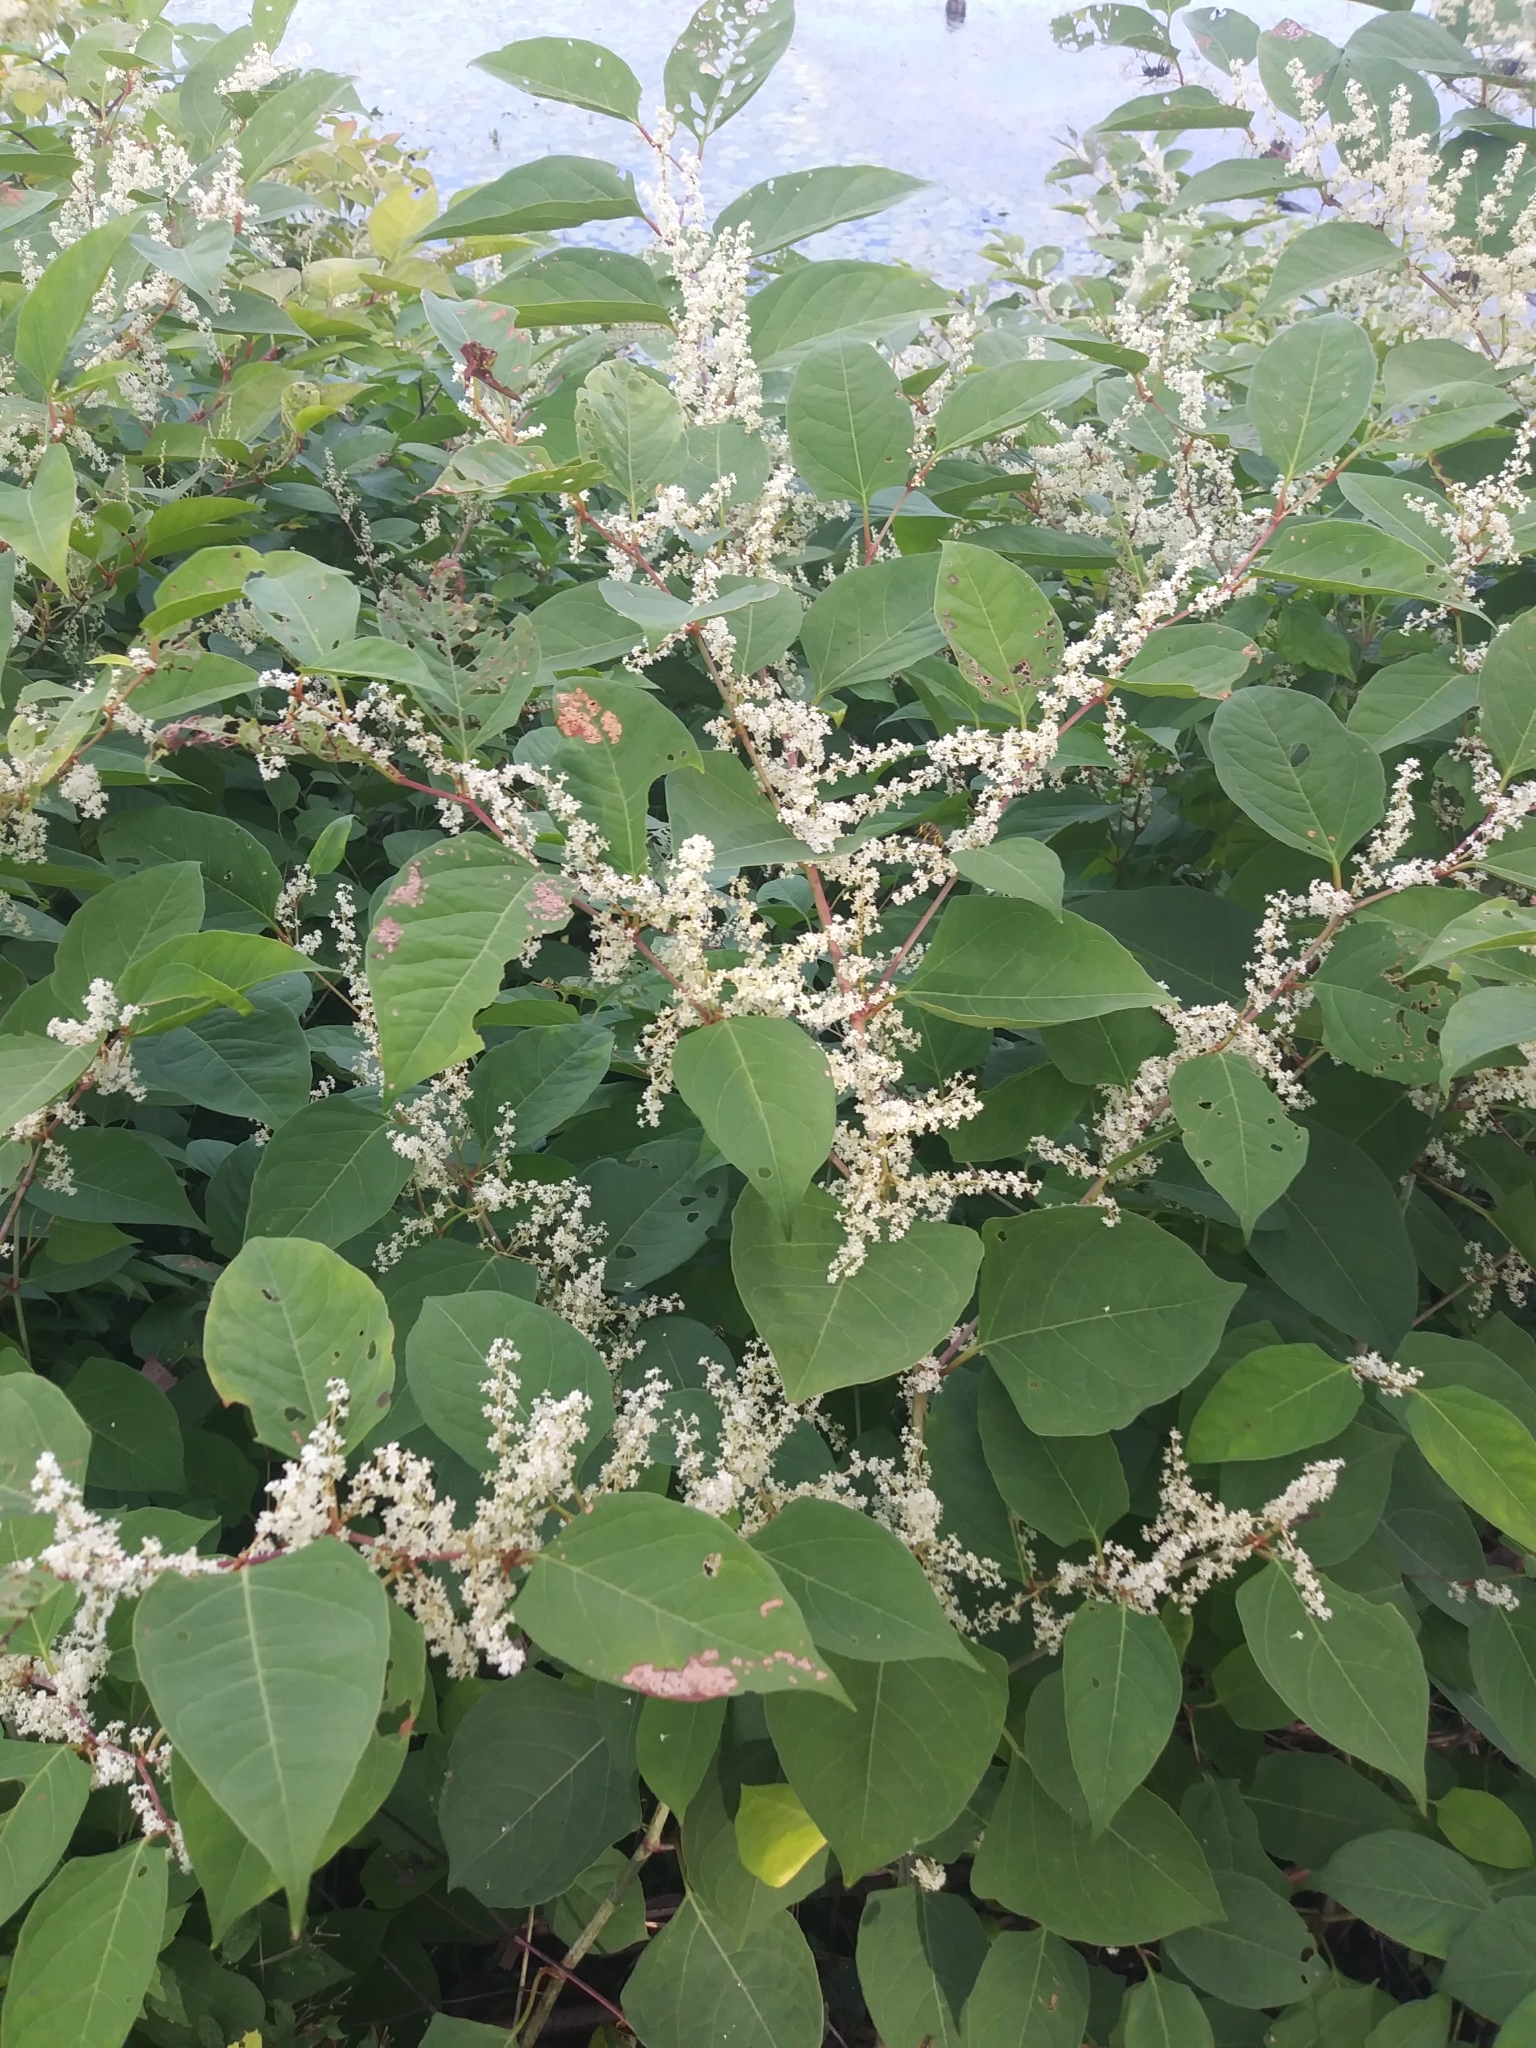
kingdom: Plantae
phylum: Tracheophyta
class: Magnoliopsida
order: Caryophyllales
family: Polygonaceae
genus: Reynoutria
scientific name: Reynoutria japonica
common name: Japanese knotweed
